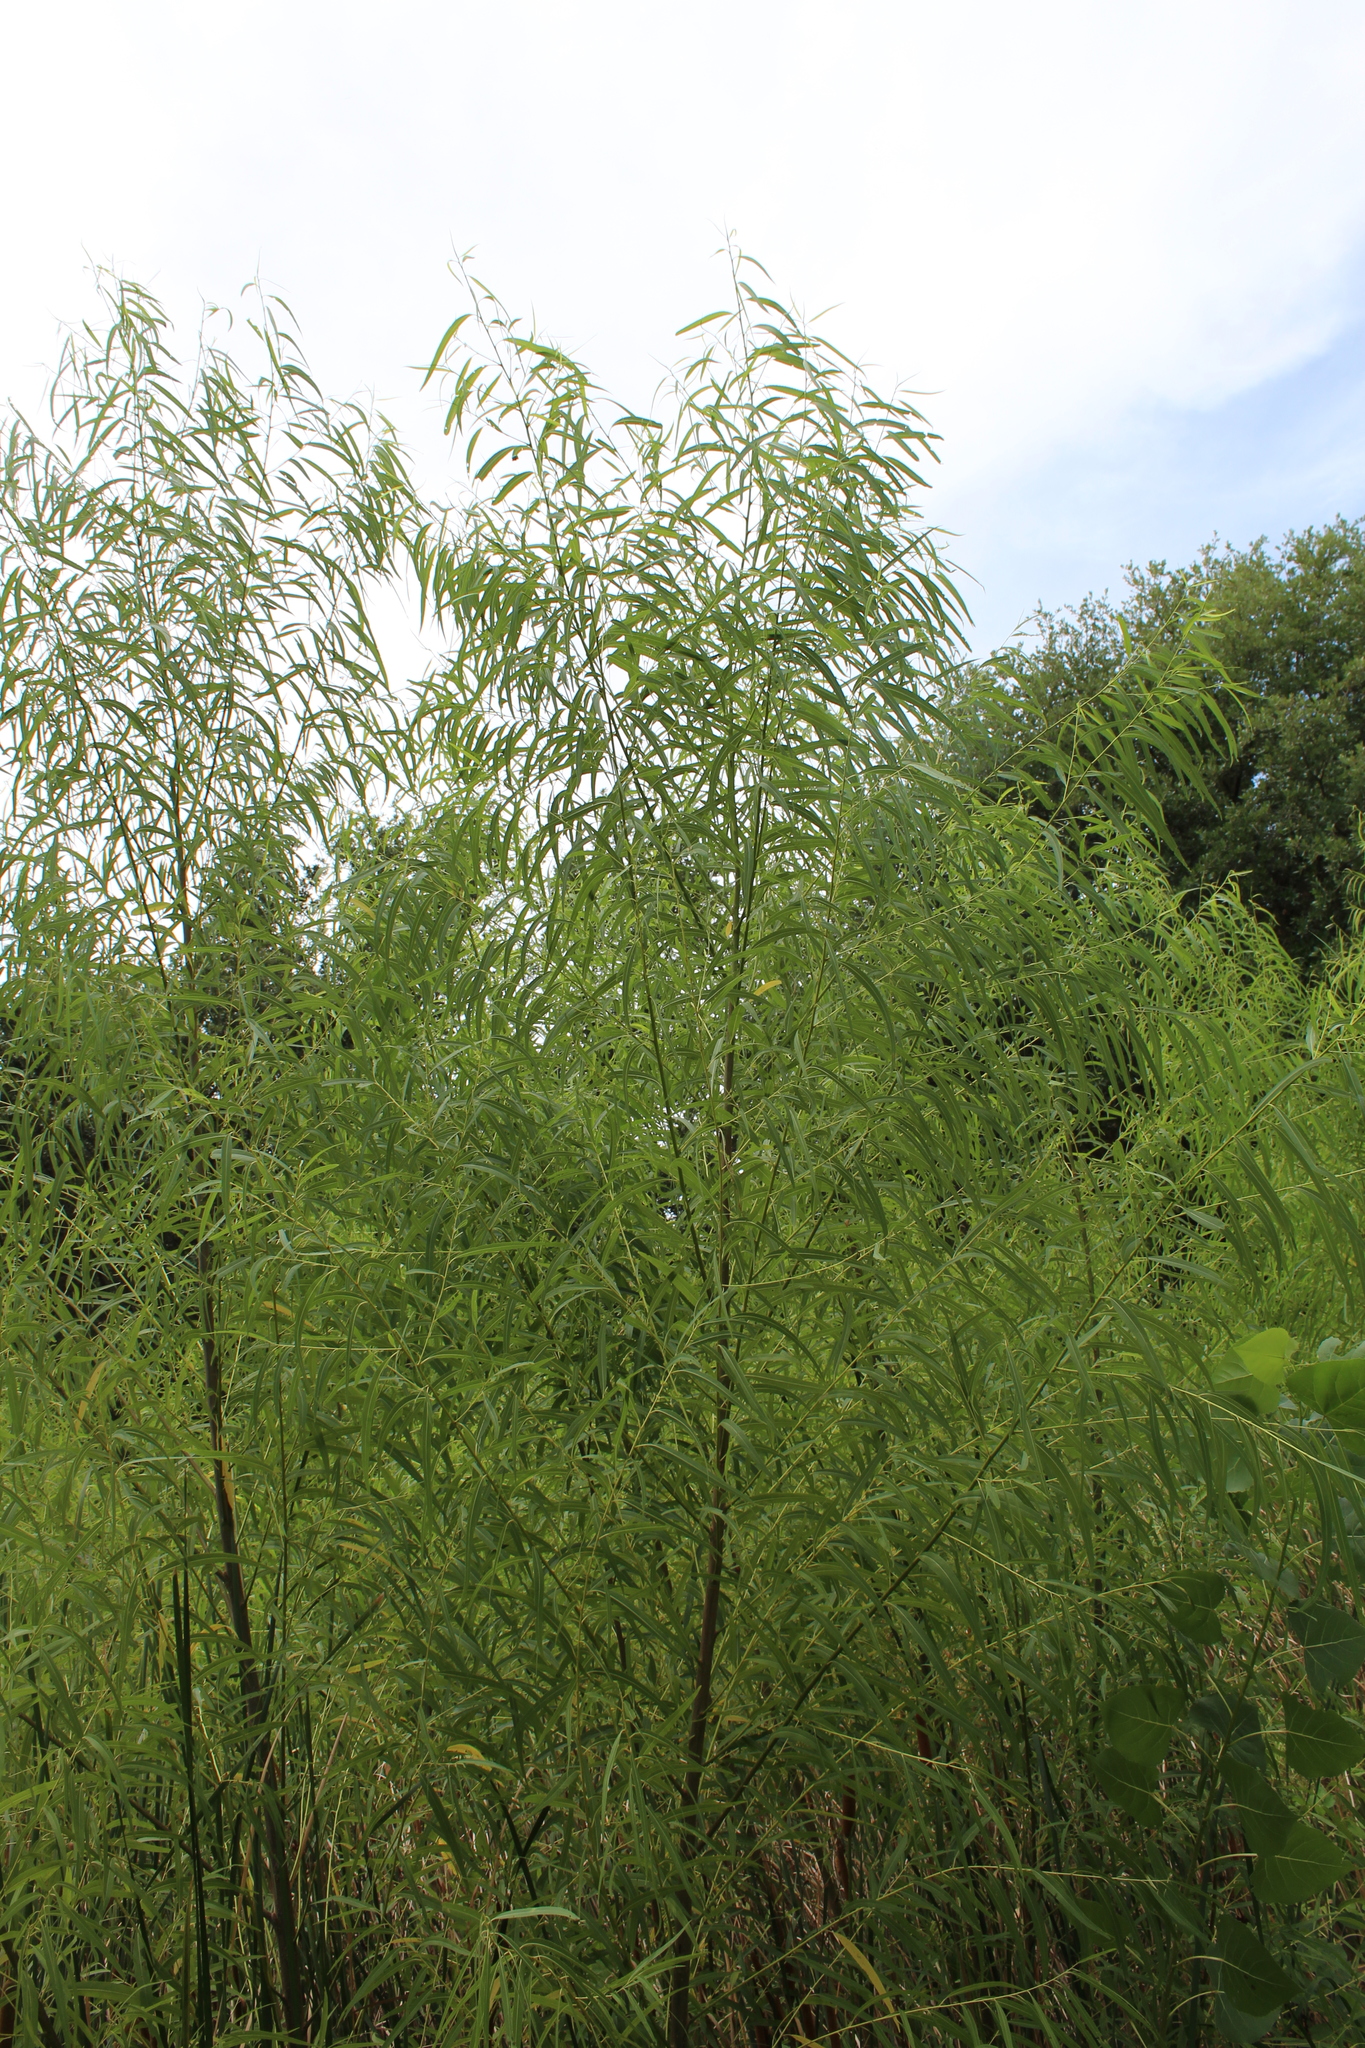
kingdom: Plantae
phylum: Tracheophyta
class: Magnoliopsida
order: Malpighiales
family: Salicaceae
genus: Salix
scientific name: Salix nigra
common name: Black willow
